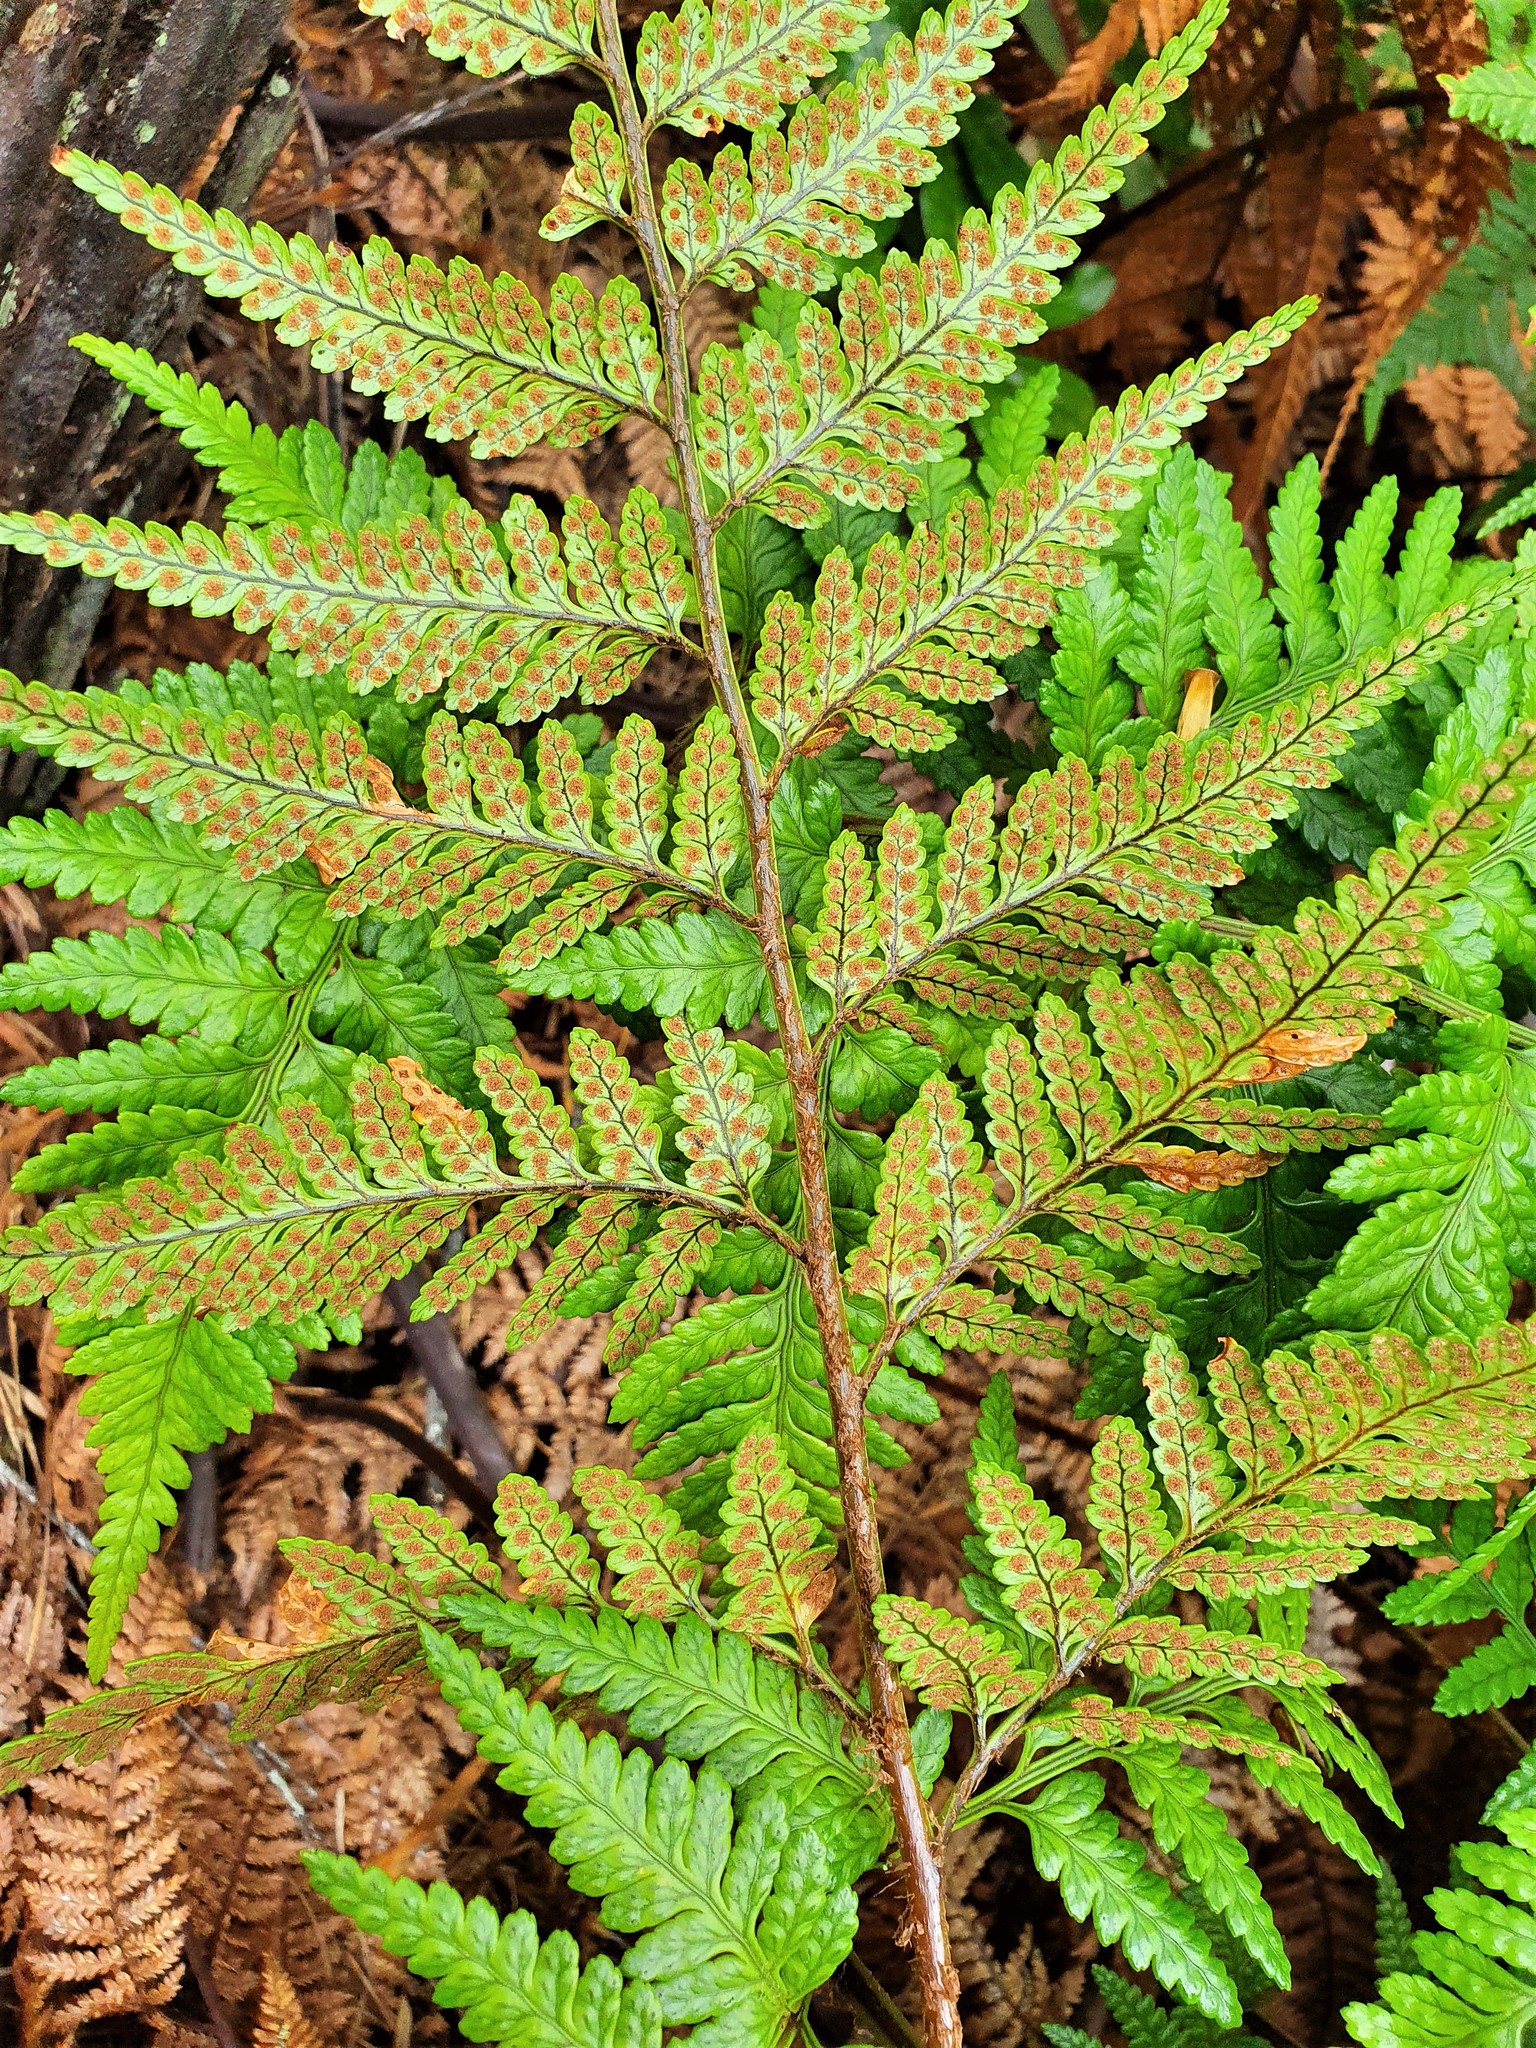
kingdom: Plantae
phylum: Tracheophyta
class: Polypodiopsida
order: Polypodiales
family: Dryopteridaceae
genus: Rumohra
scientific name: Rumohra adiantiformis
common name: Leather fern
